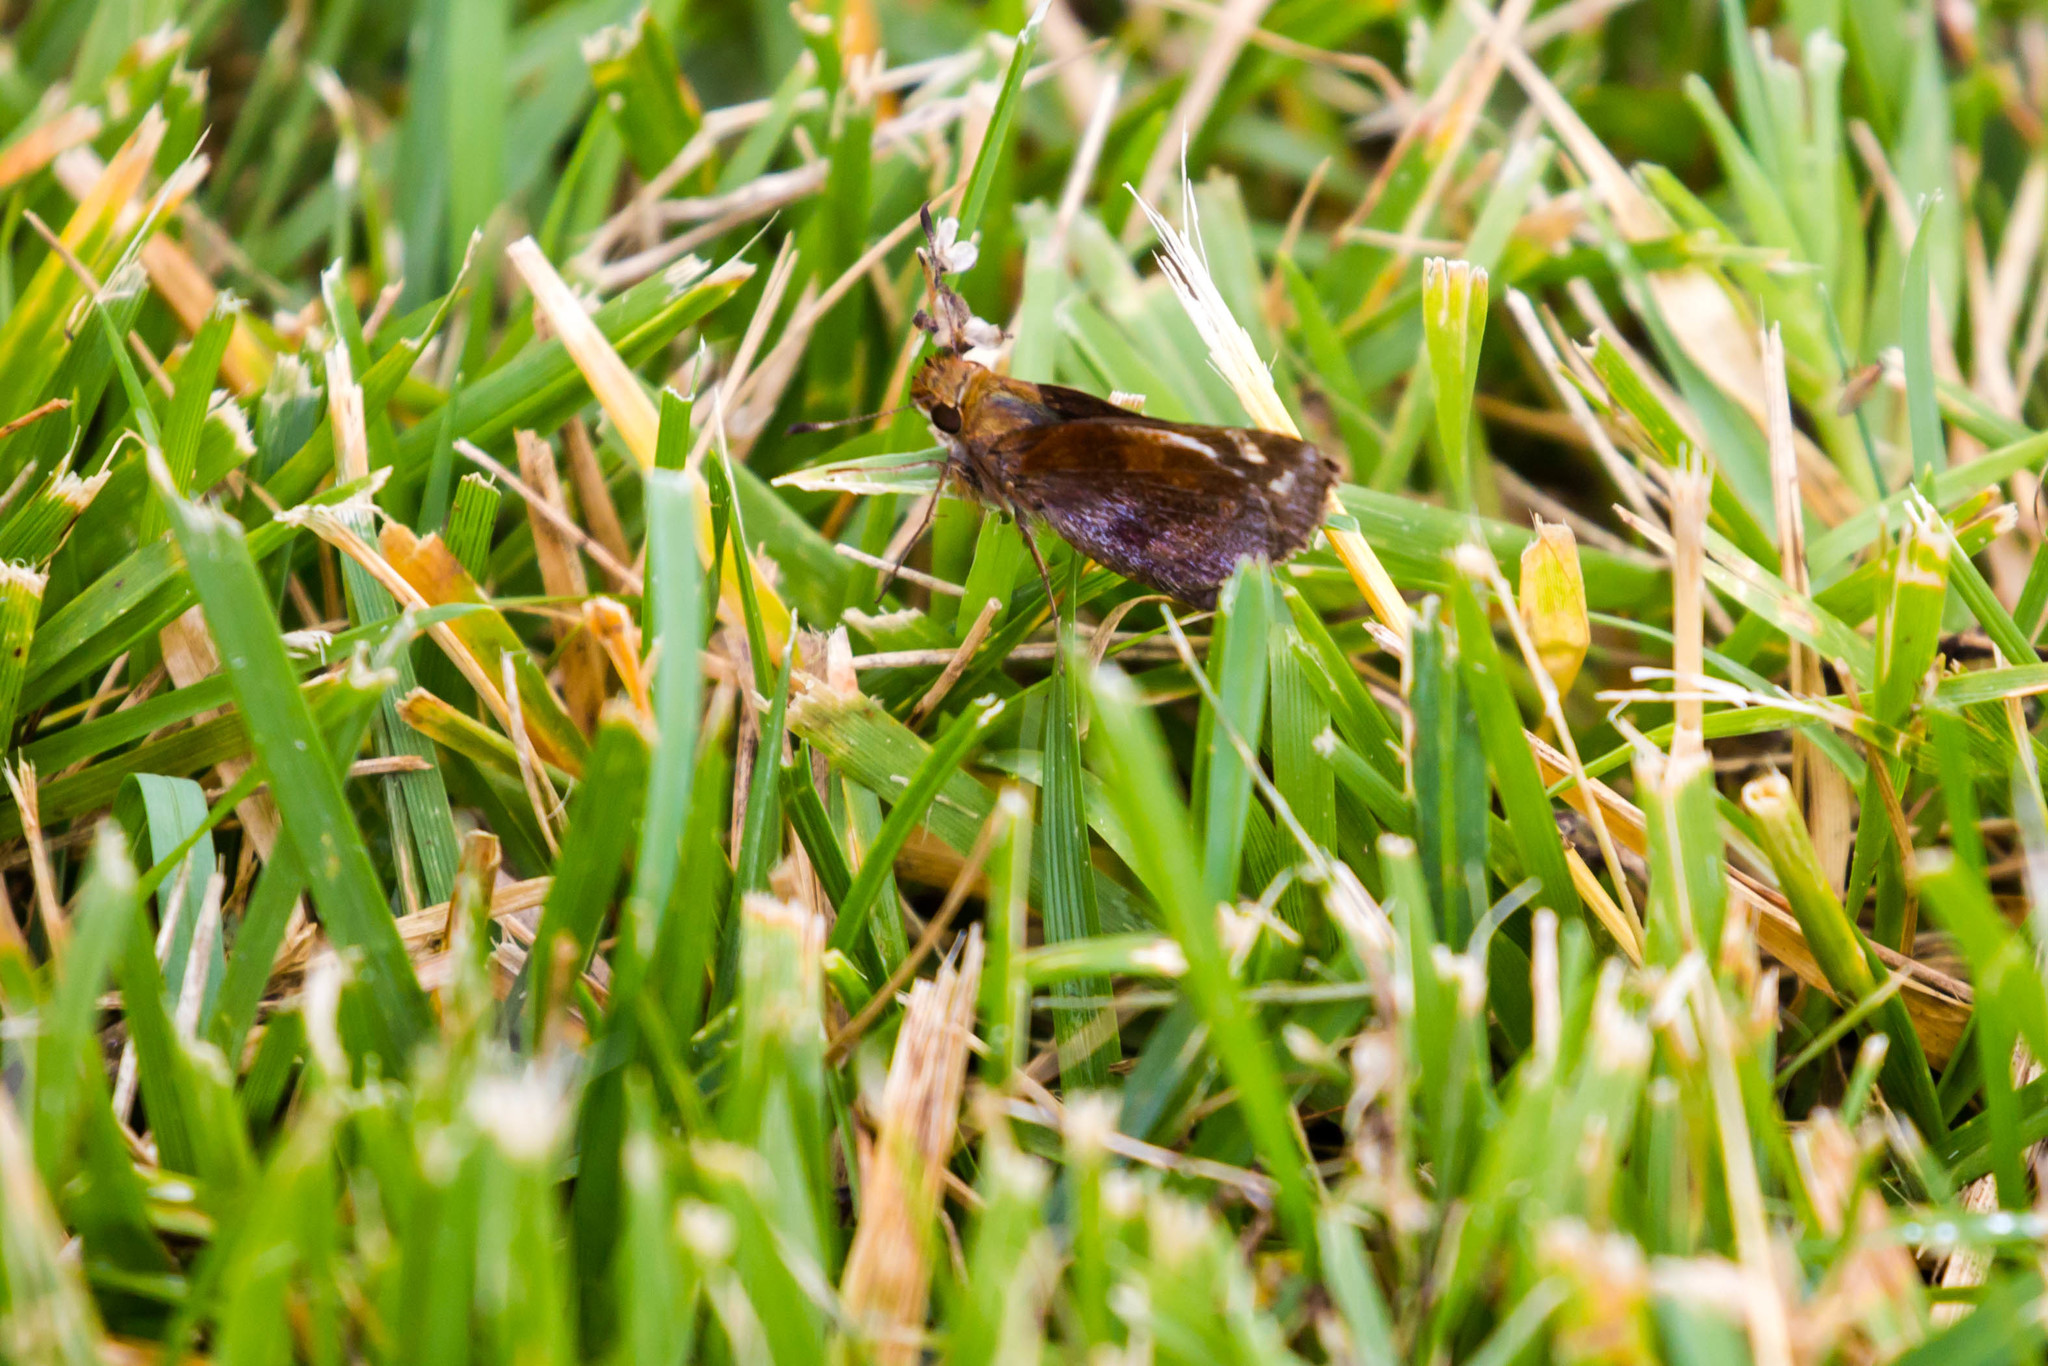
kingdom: Animalia
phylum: Arthropoda
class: Insecta
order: Lepidoptera
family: Hesperiidae
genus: Lon
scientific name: Lon zabulon
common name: Zabulon skipper
